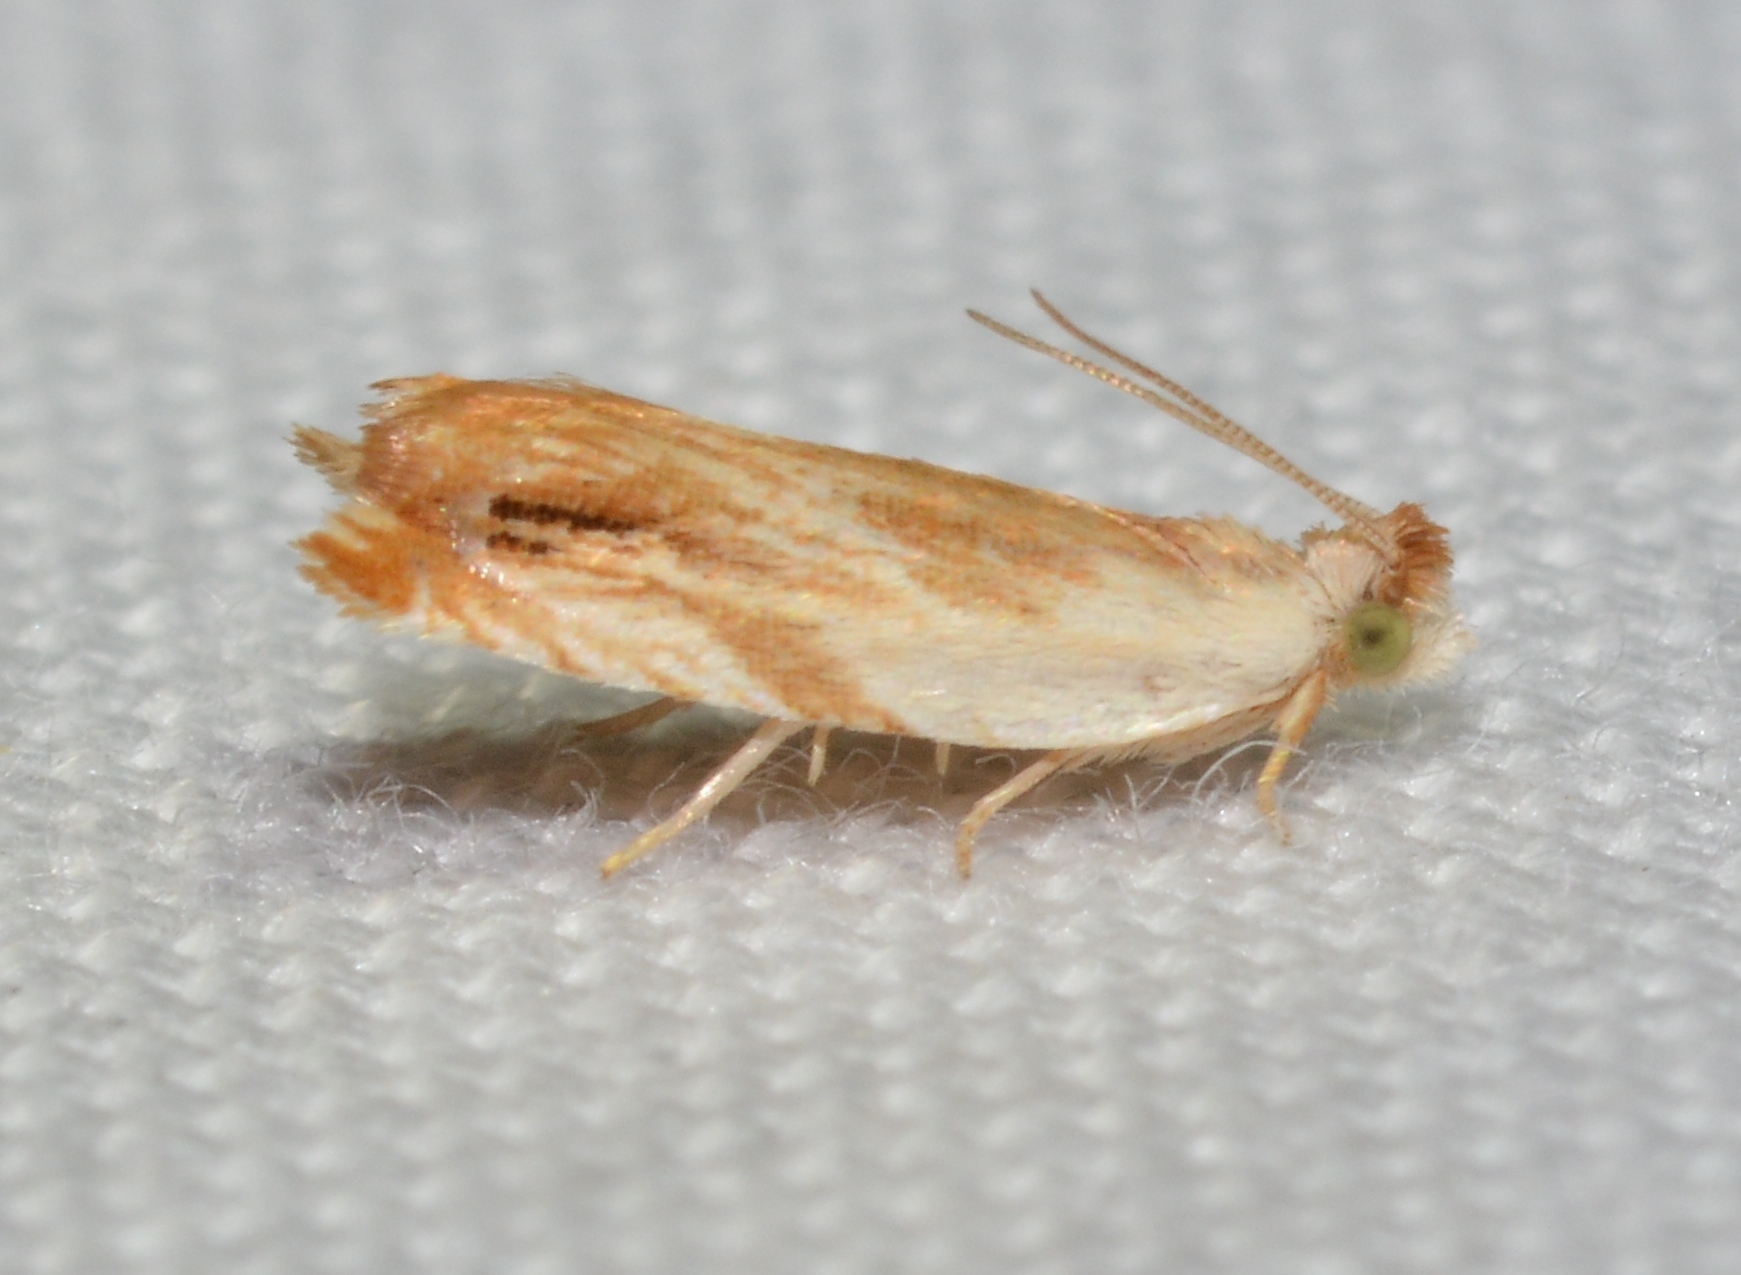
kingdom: Animalia
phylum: Arthropoda
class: Insecta
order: Lepidoptera
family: Tortricidae
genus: Ancylis
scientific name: Ancylis platanana
